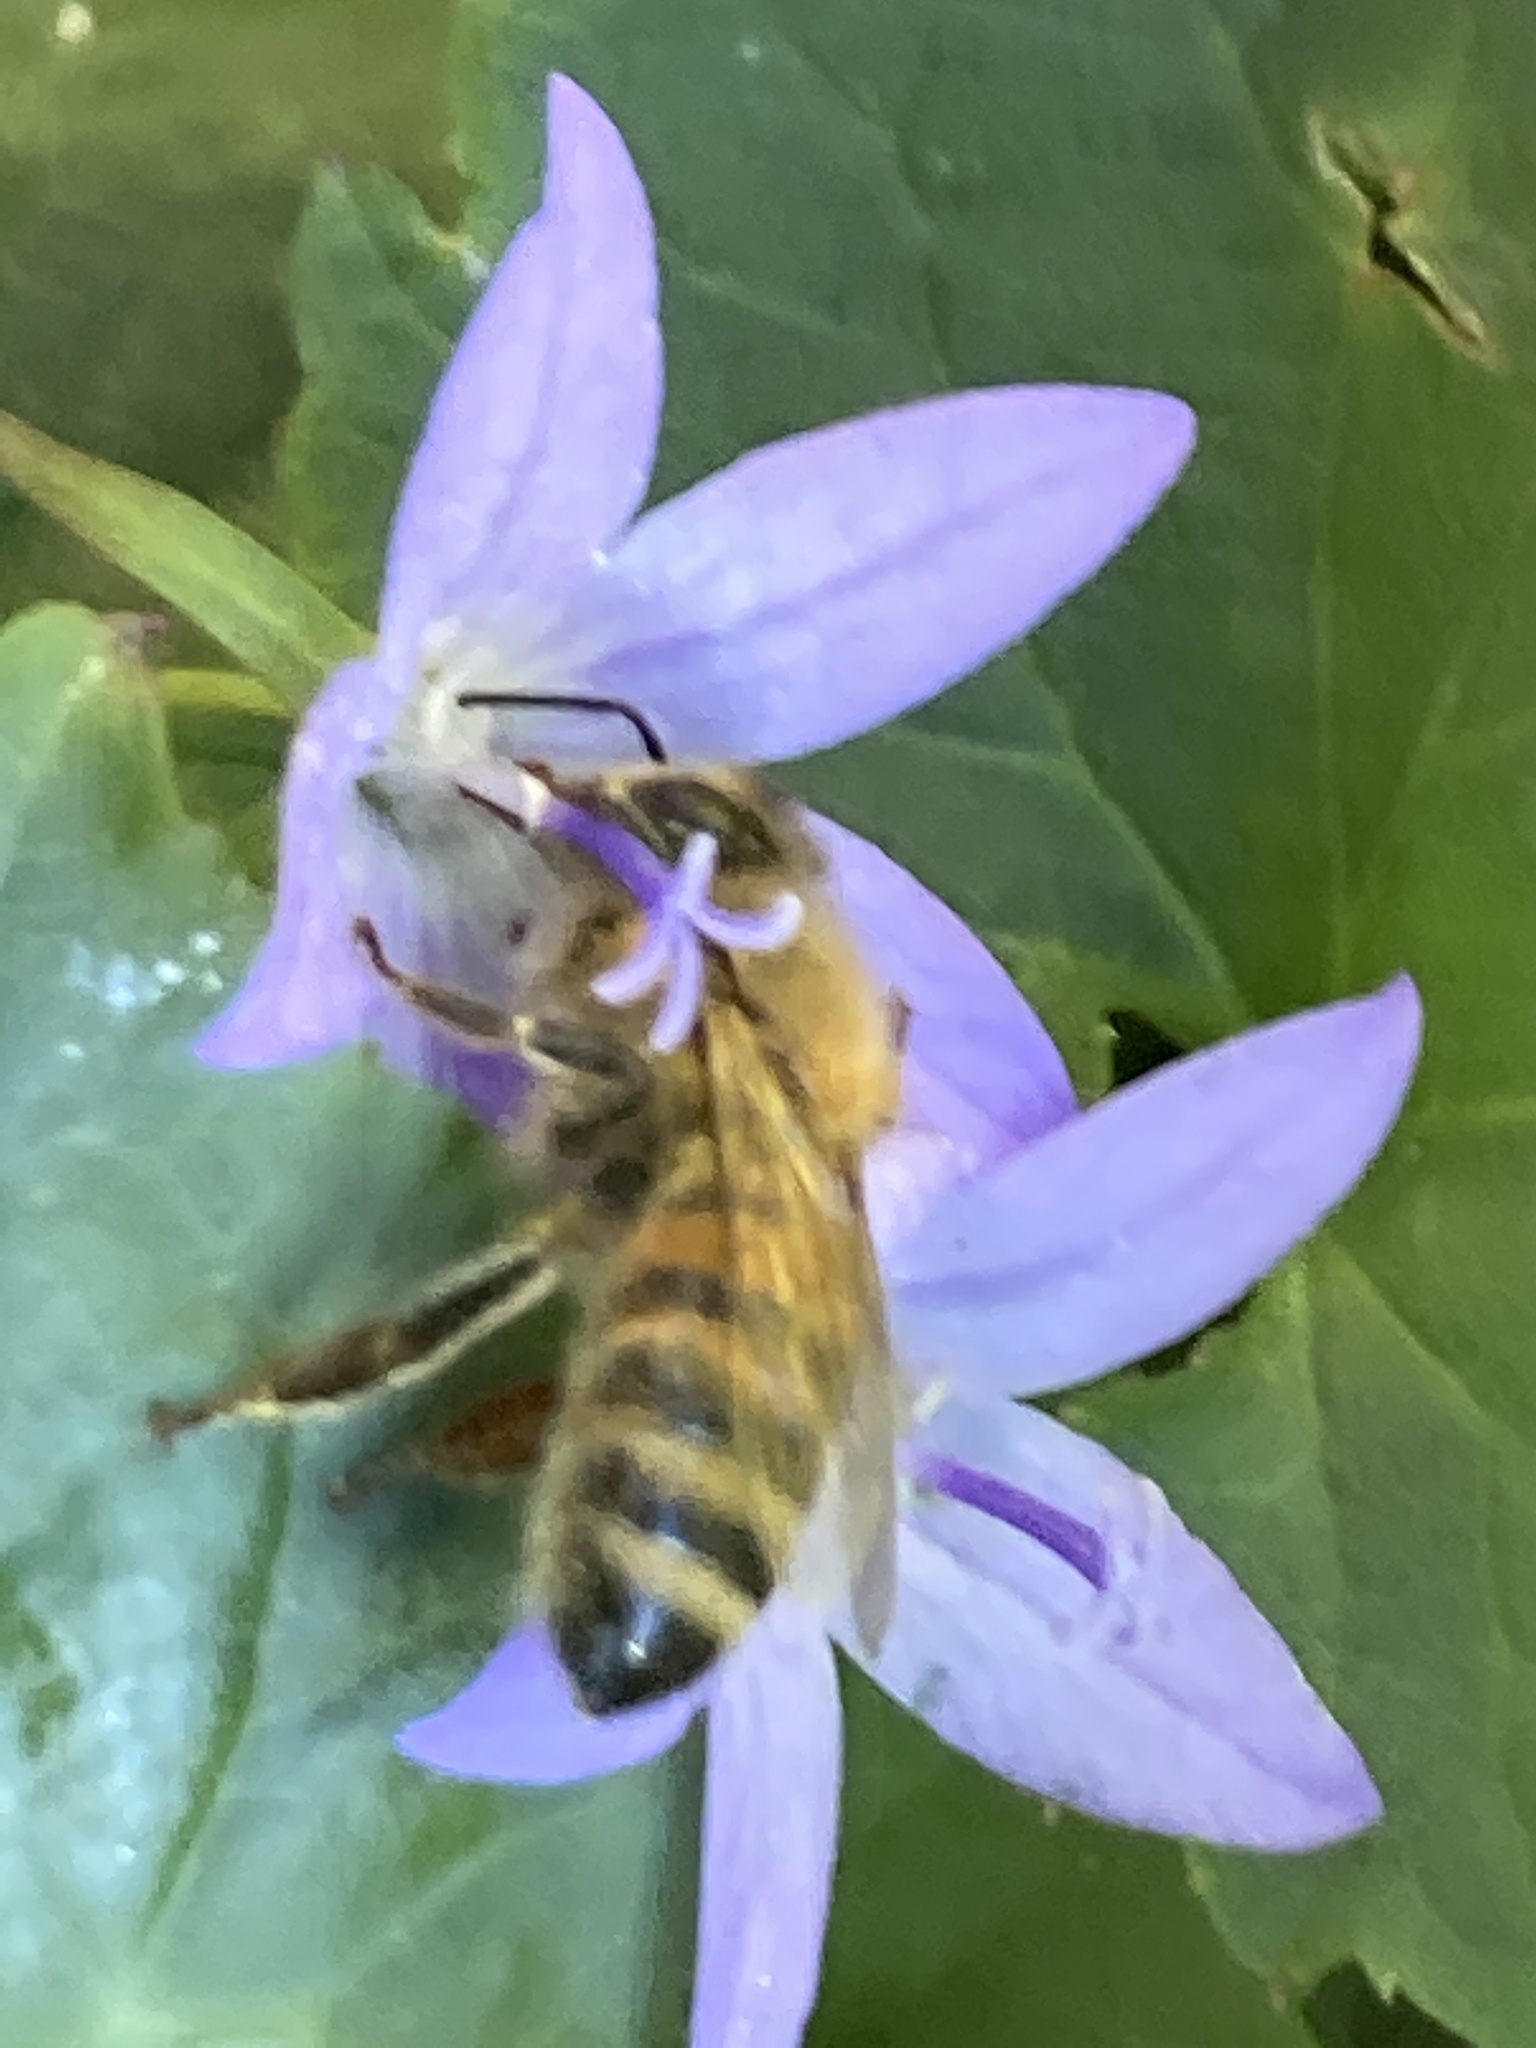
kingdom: Animalia
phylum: Arthropoda
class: Insecta
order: Hymenoptera
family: Apidae
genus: Apis
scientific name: Apis mellifera
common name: Honey bee
